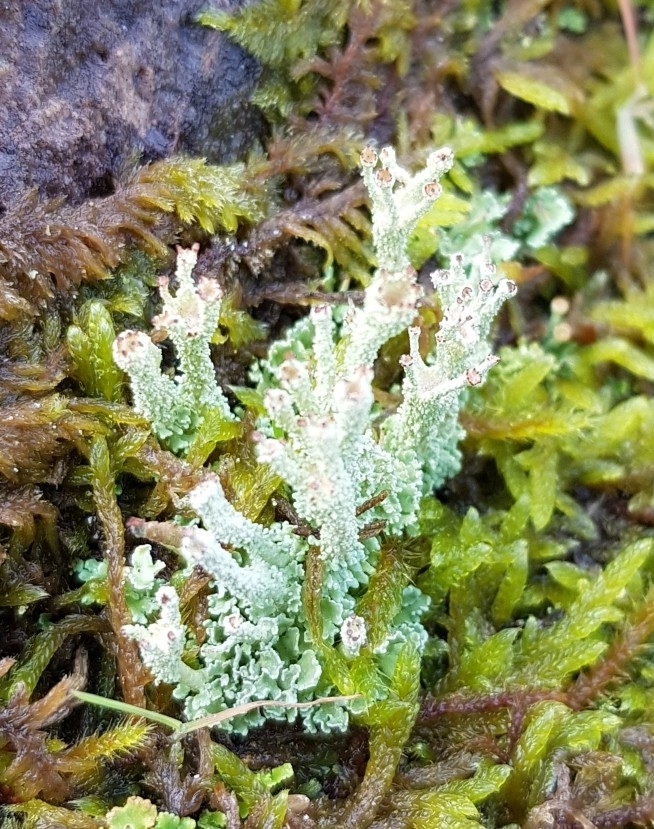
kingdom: Fungi
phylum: Ascomycota
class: Lecanoromycetes
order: Lecanorales
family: Cladoniaceae
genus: Cladonia
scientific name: Cladonia squamosa
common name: Dragon horn
